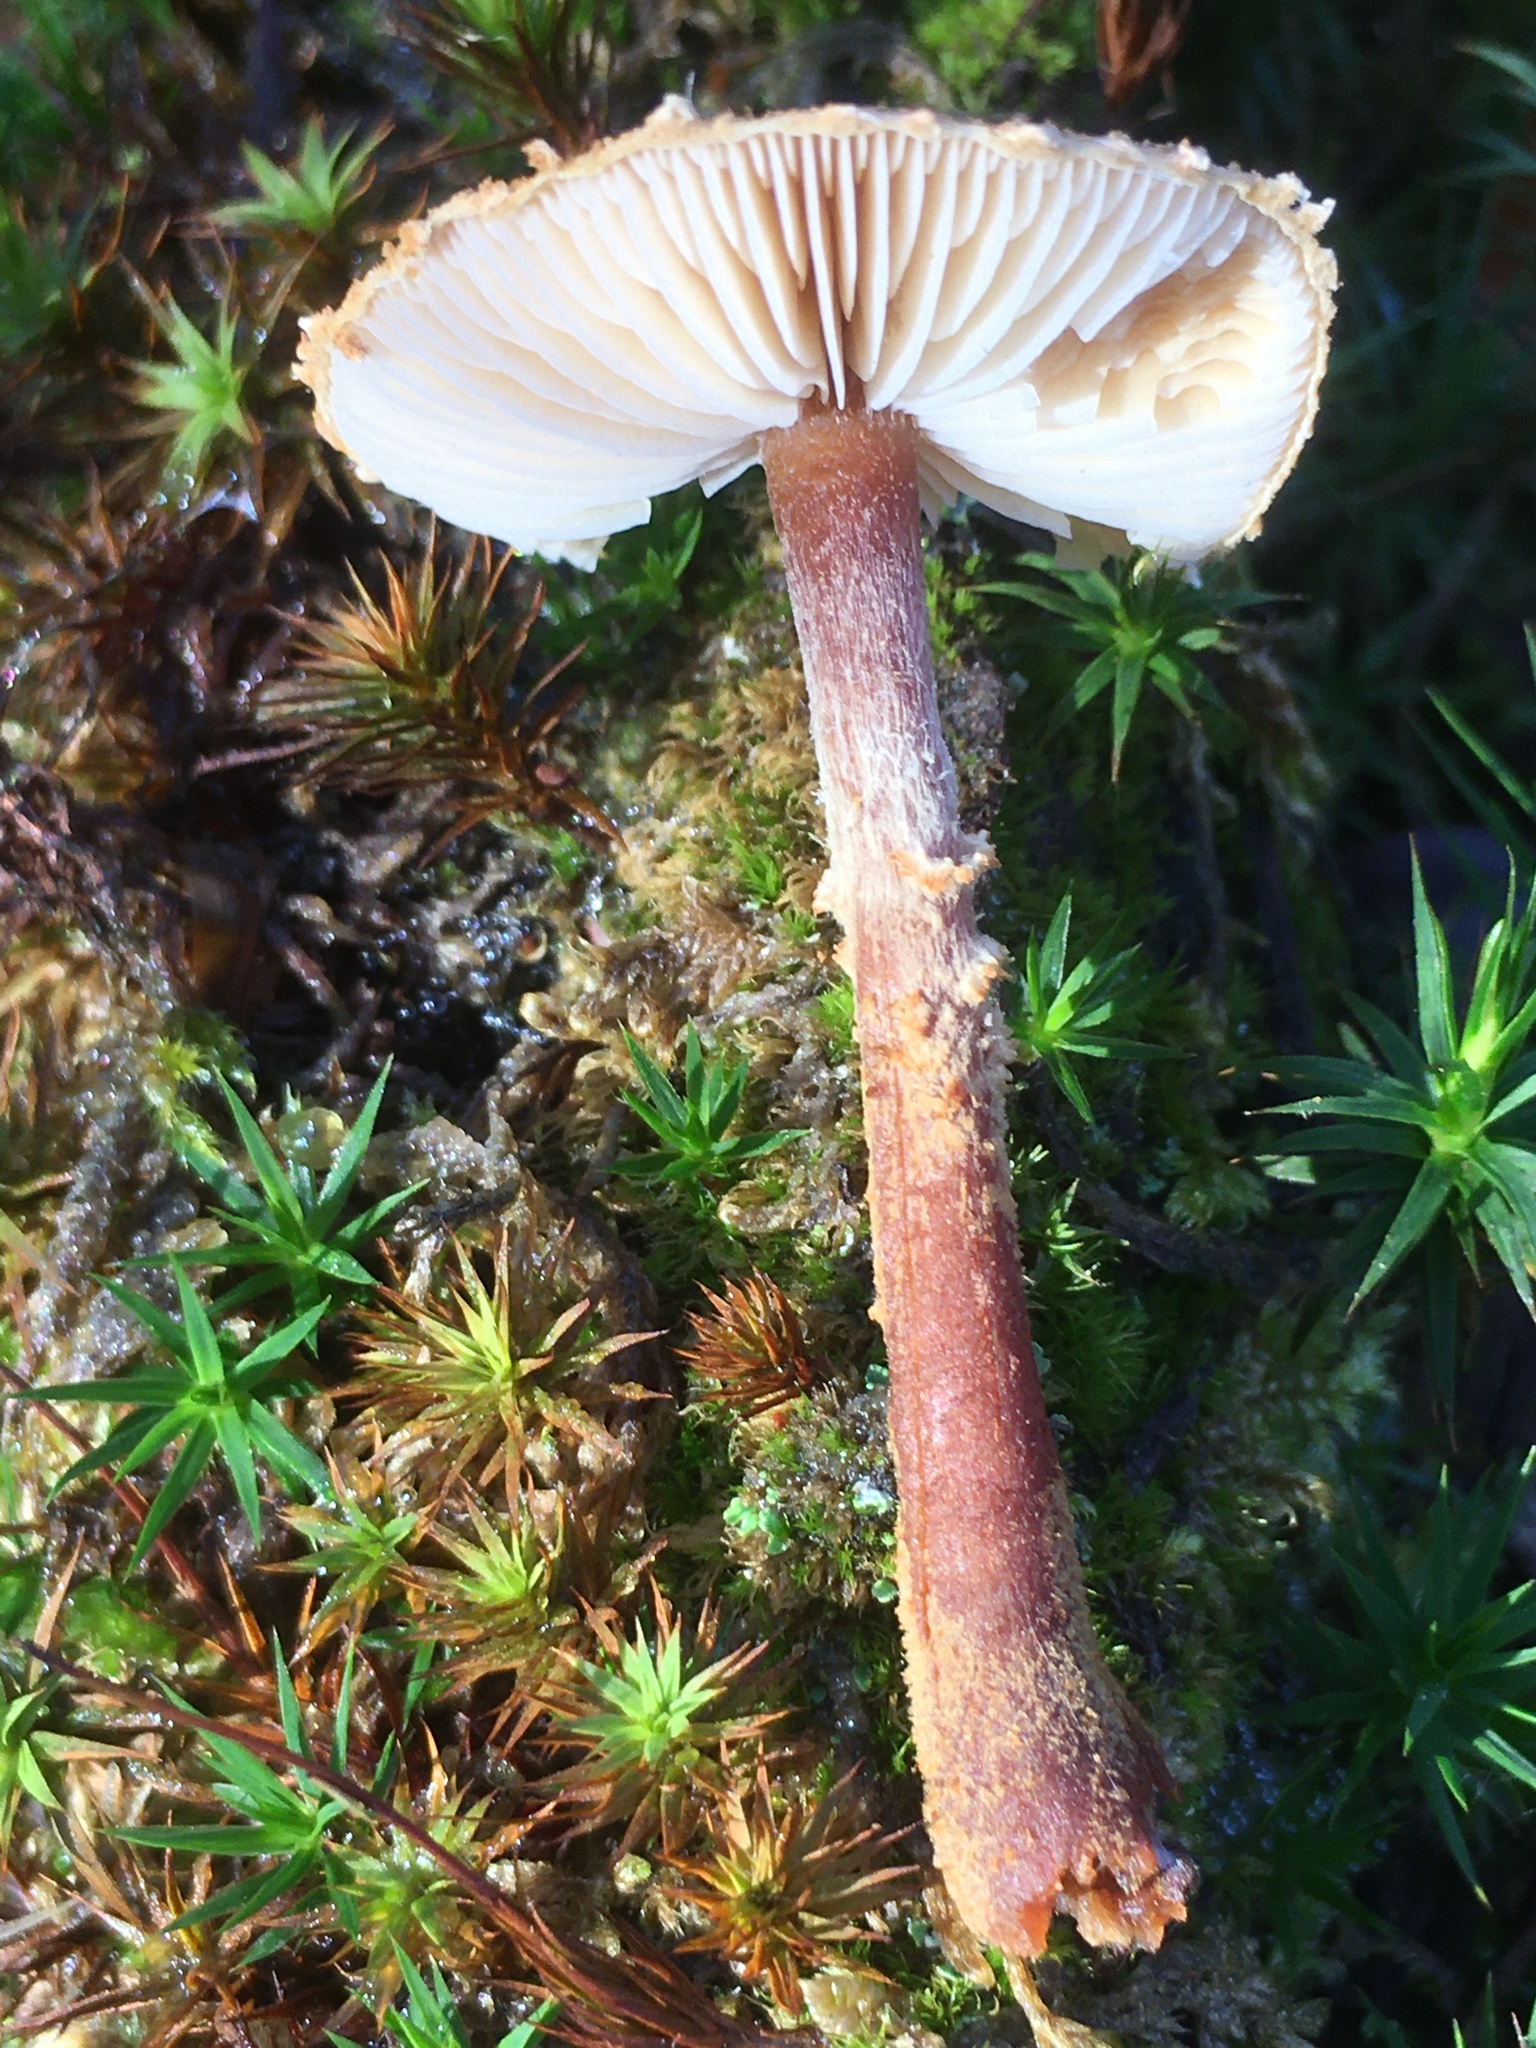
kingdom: Fungi
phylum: Basidiomycota
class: Agaricomycetes
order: Agaricales
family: Tricholomataceae
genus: Cystoderma
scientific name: Cystoderma jasonis
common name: Pine powdercap
